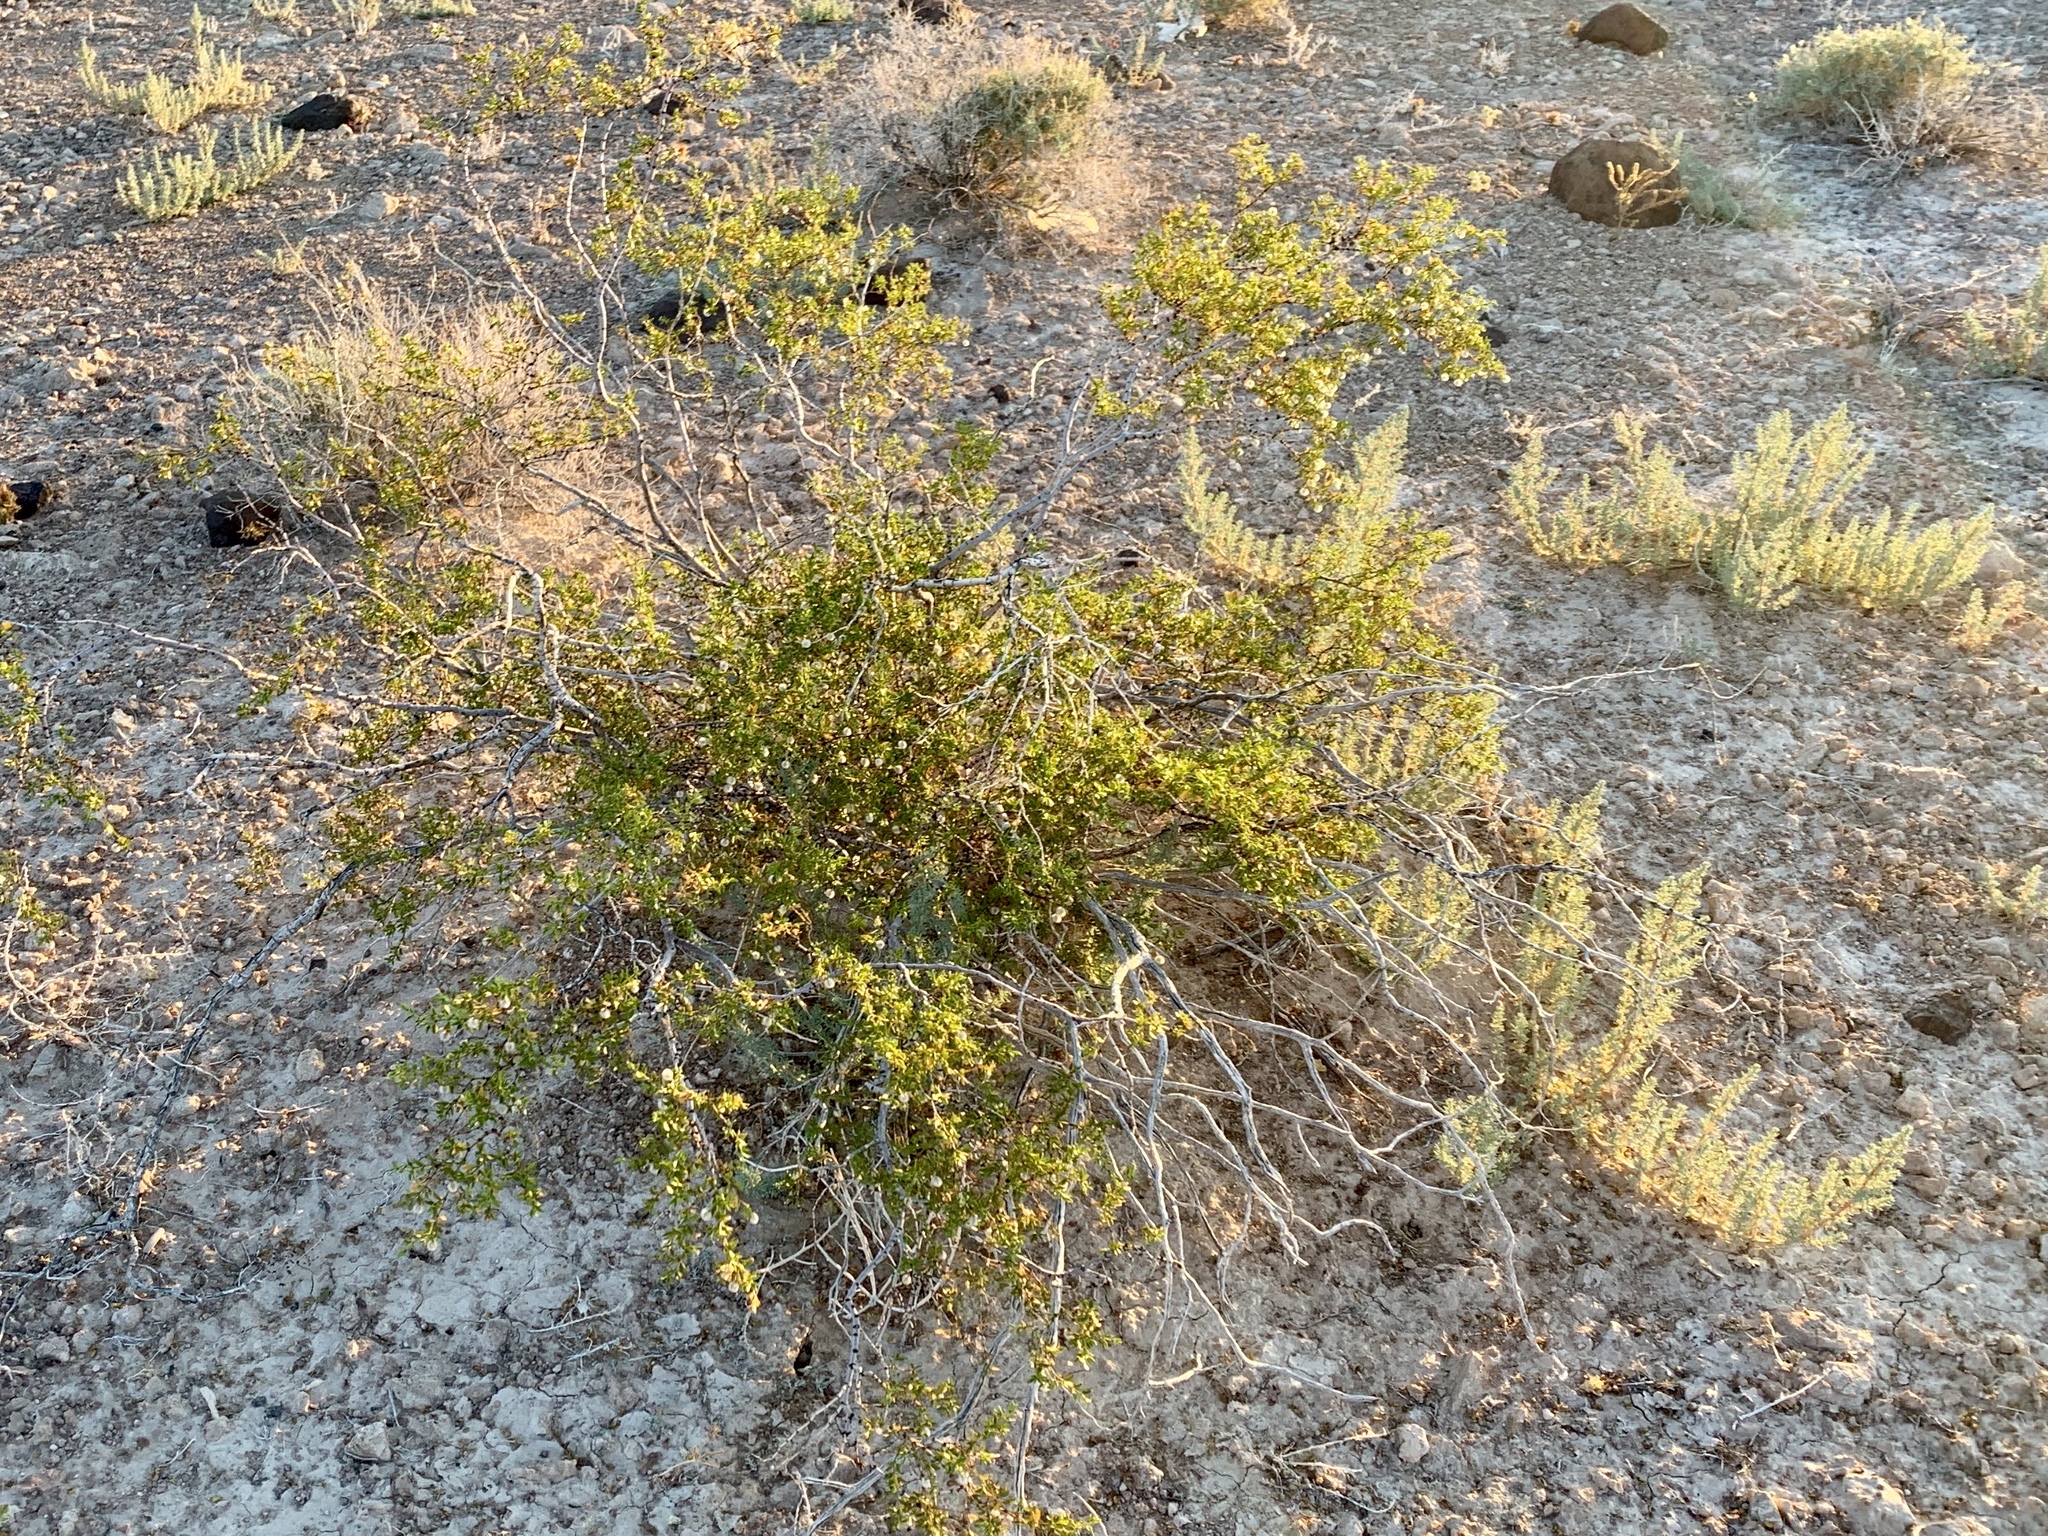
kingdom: Plantae
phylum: Tracheophyta
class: Magnoliopsida
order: Zygophyllales
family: Zygophyllaceae
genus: Larrea
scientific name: Larrea tridentata
